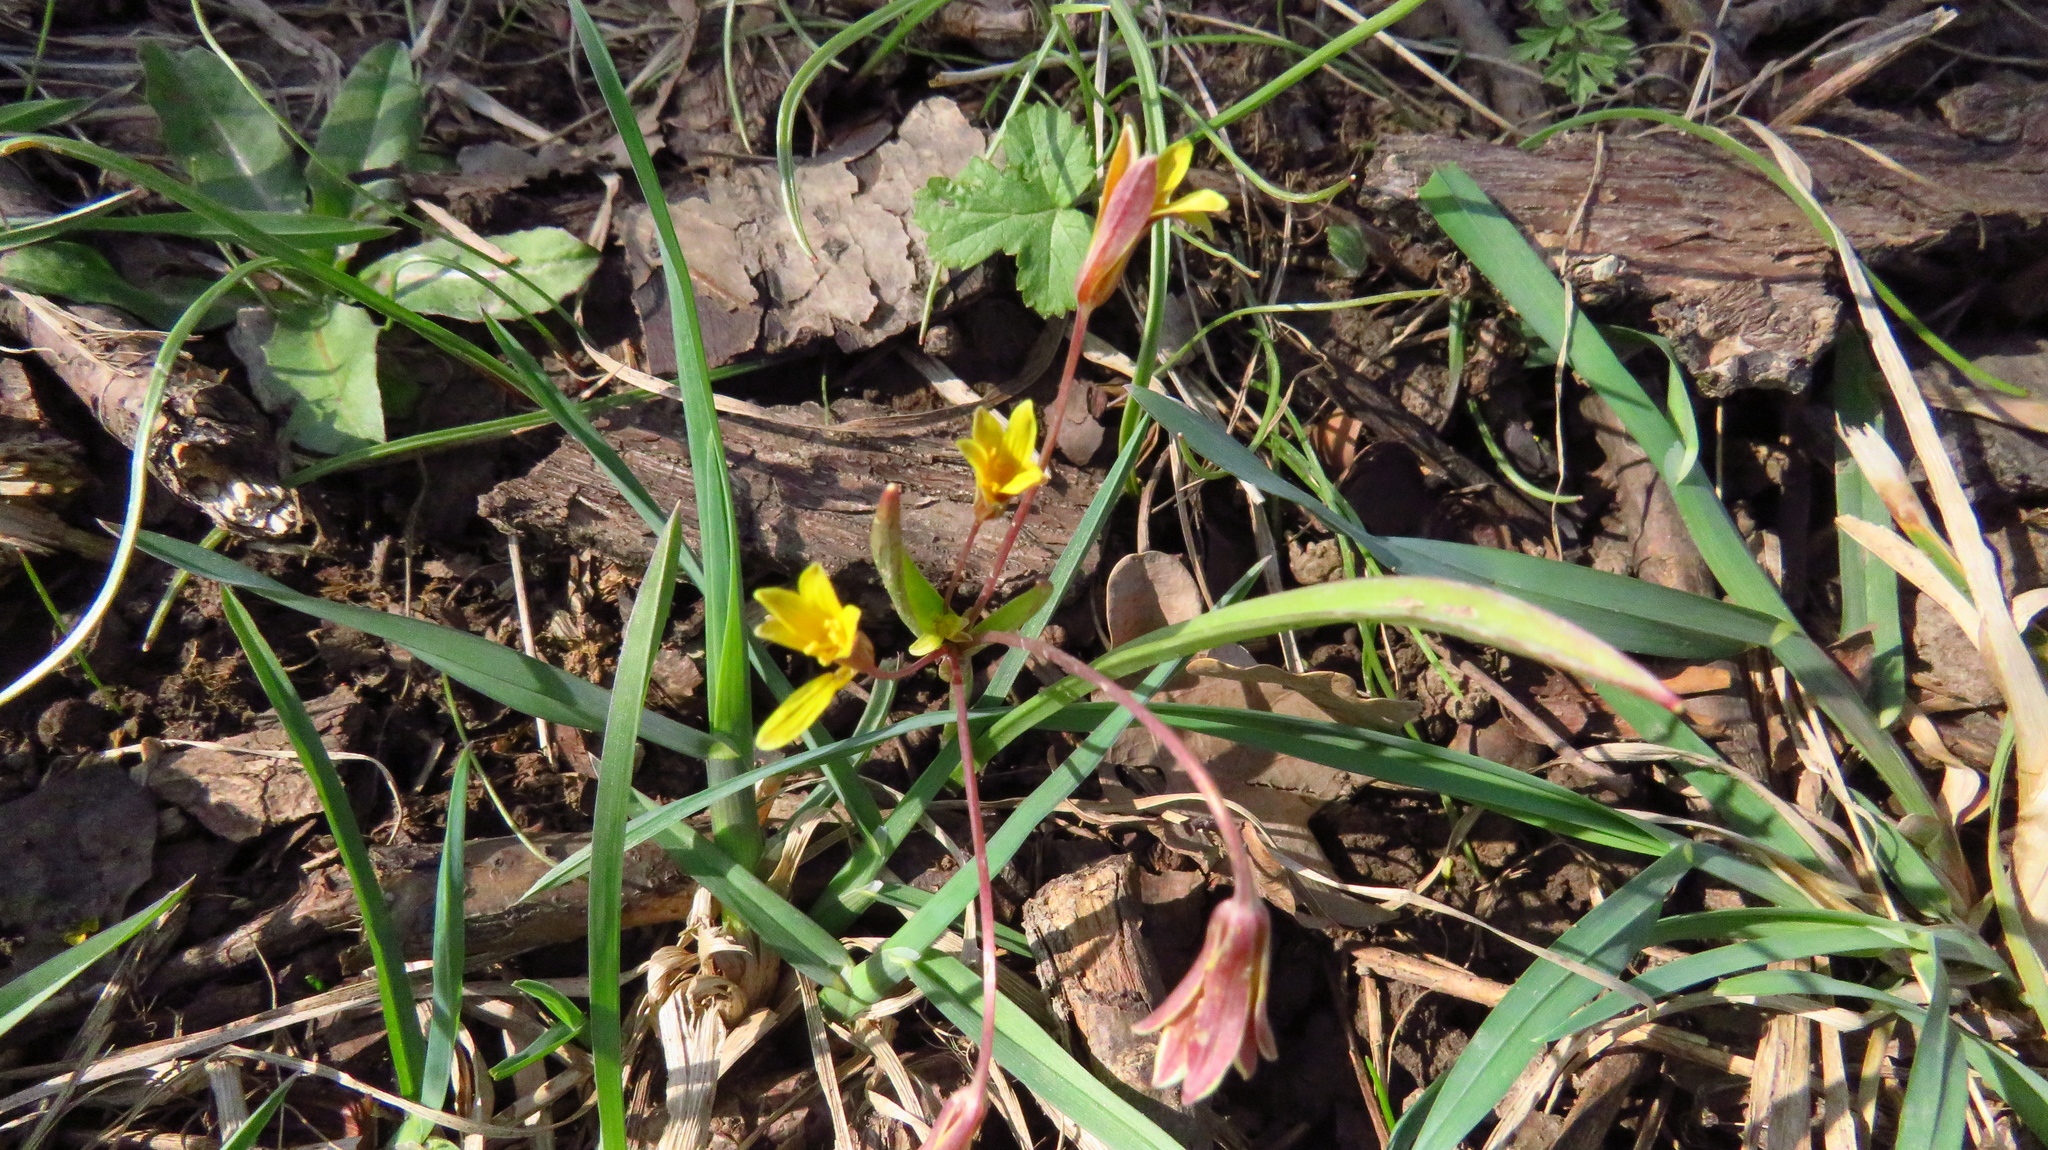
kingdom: Plantae
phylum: Tracheophyta
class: Liliopsida
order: Liliales
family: Liliaceae
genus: Gagea
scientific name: Gagea fragifera
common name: Lily
